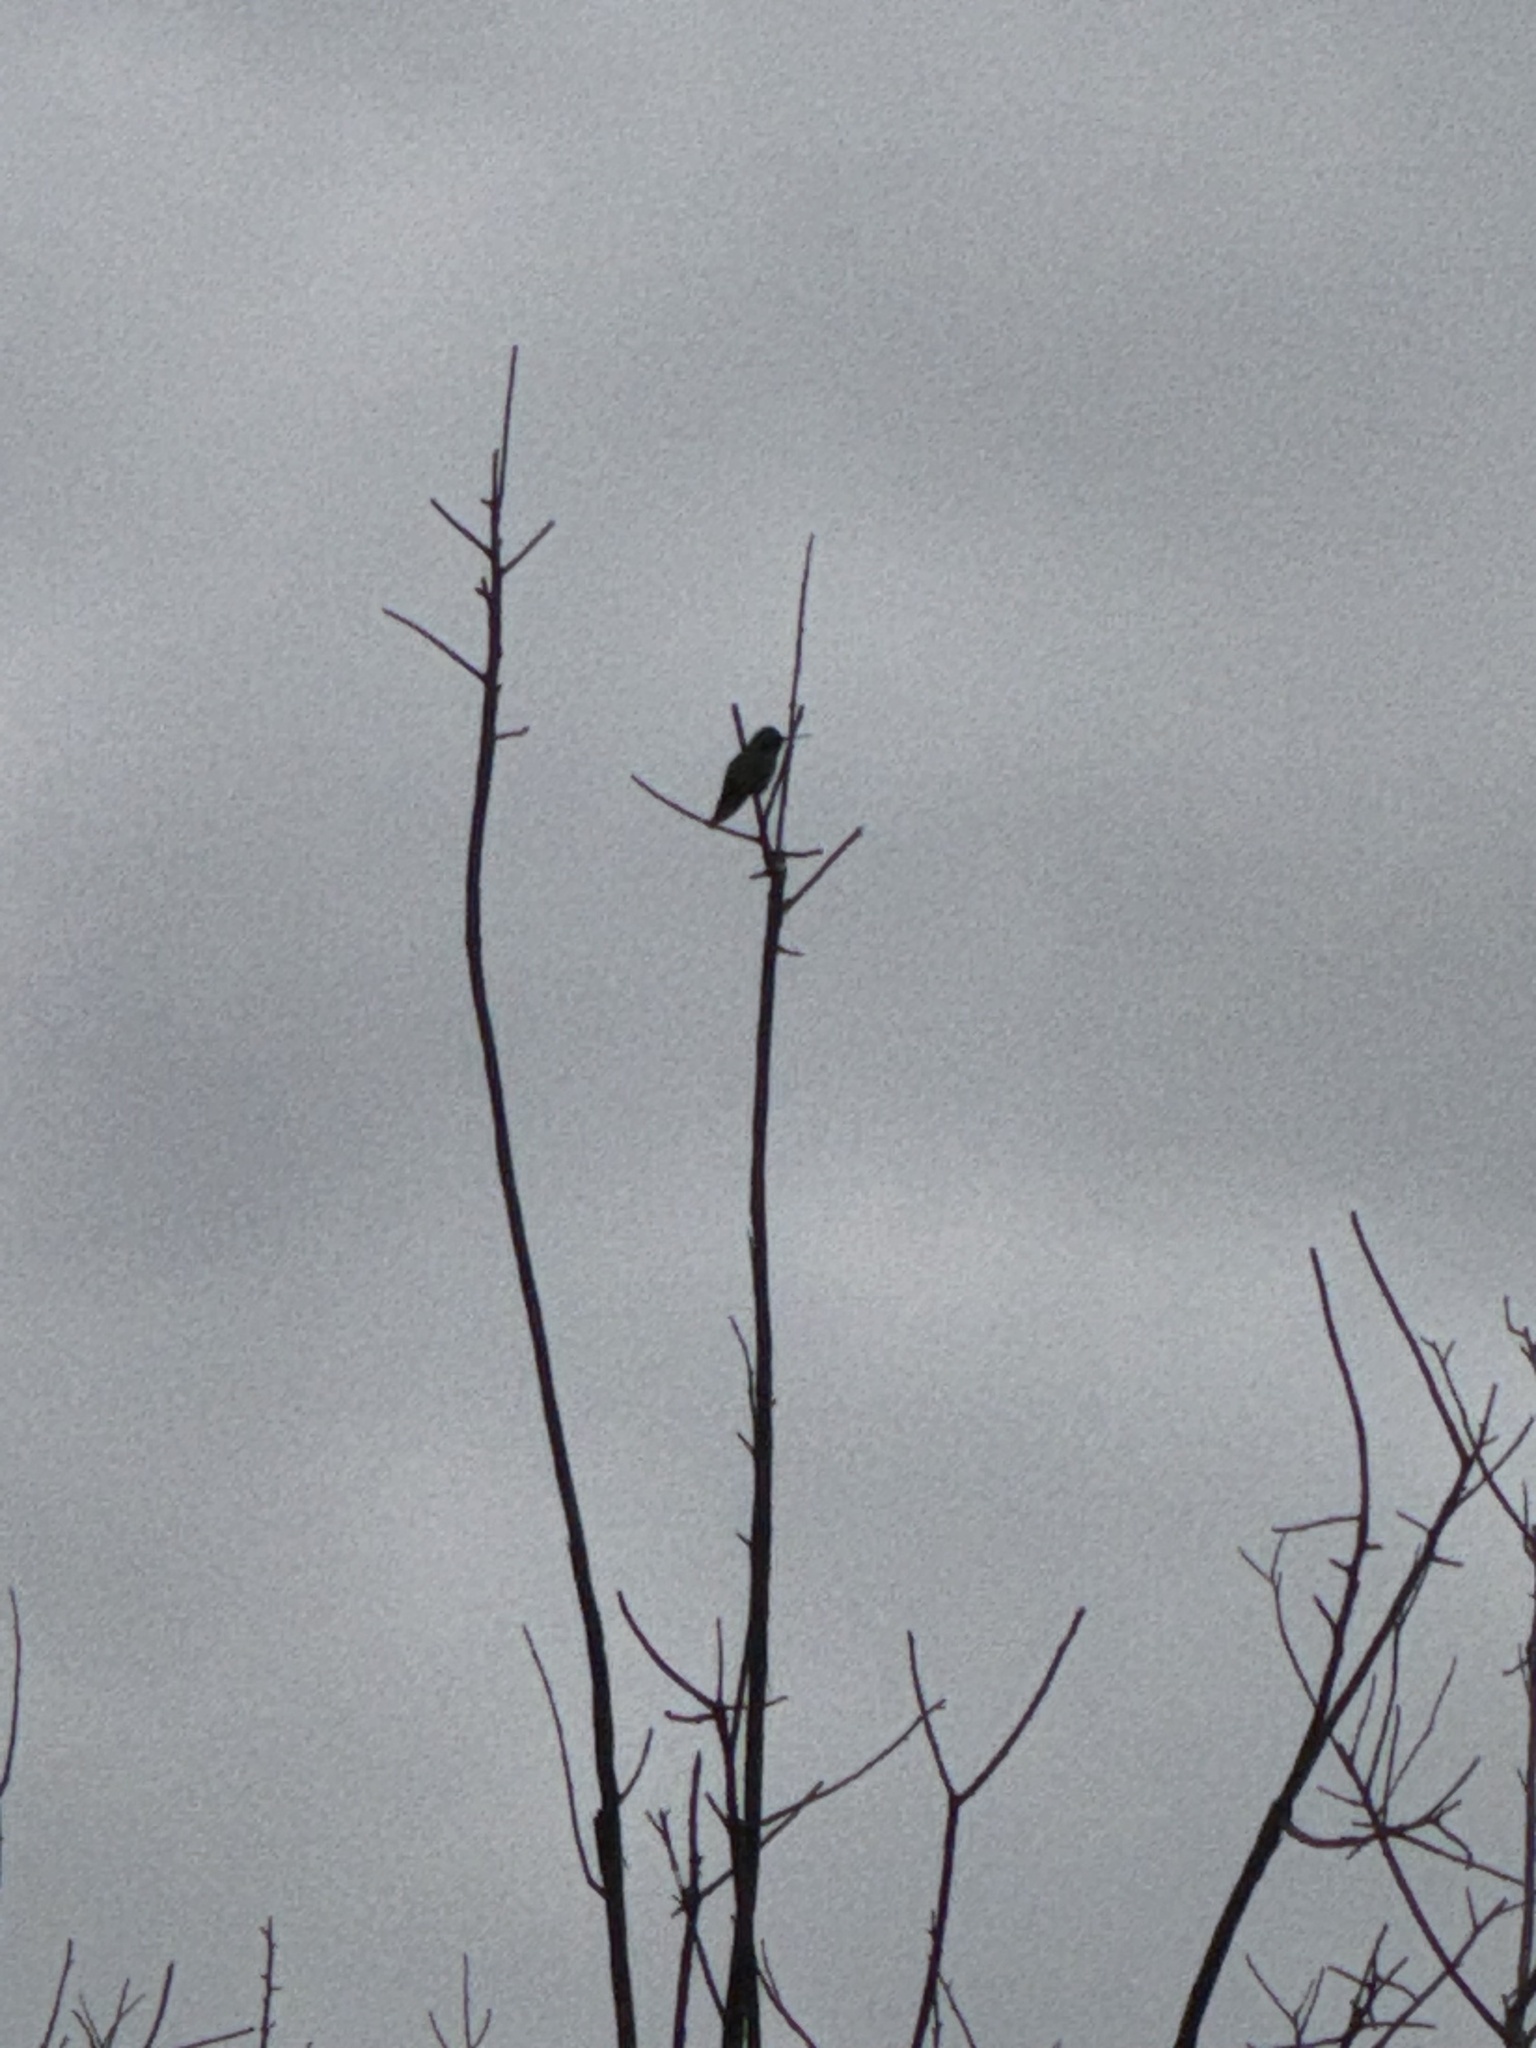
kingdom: Animalia
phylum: Chordata
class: Aves
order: Apodiformes
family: Trochilidae
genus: Calypte
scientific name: Calypte anna
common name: Anna's hummingbird
